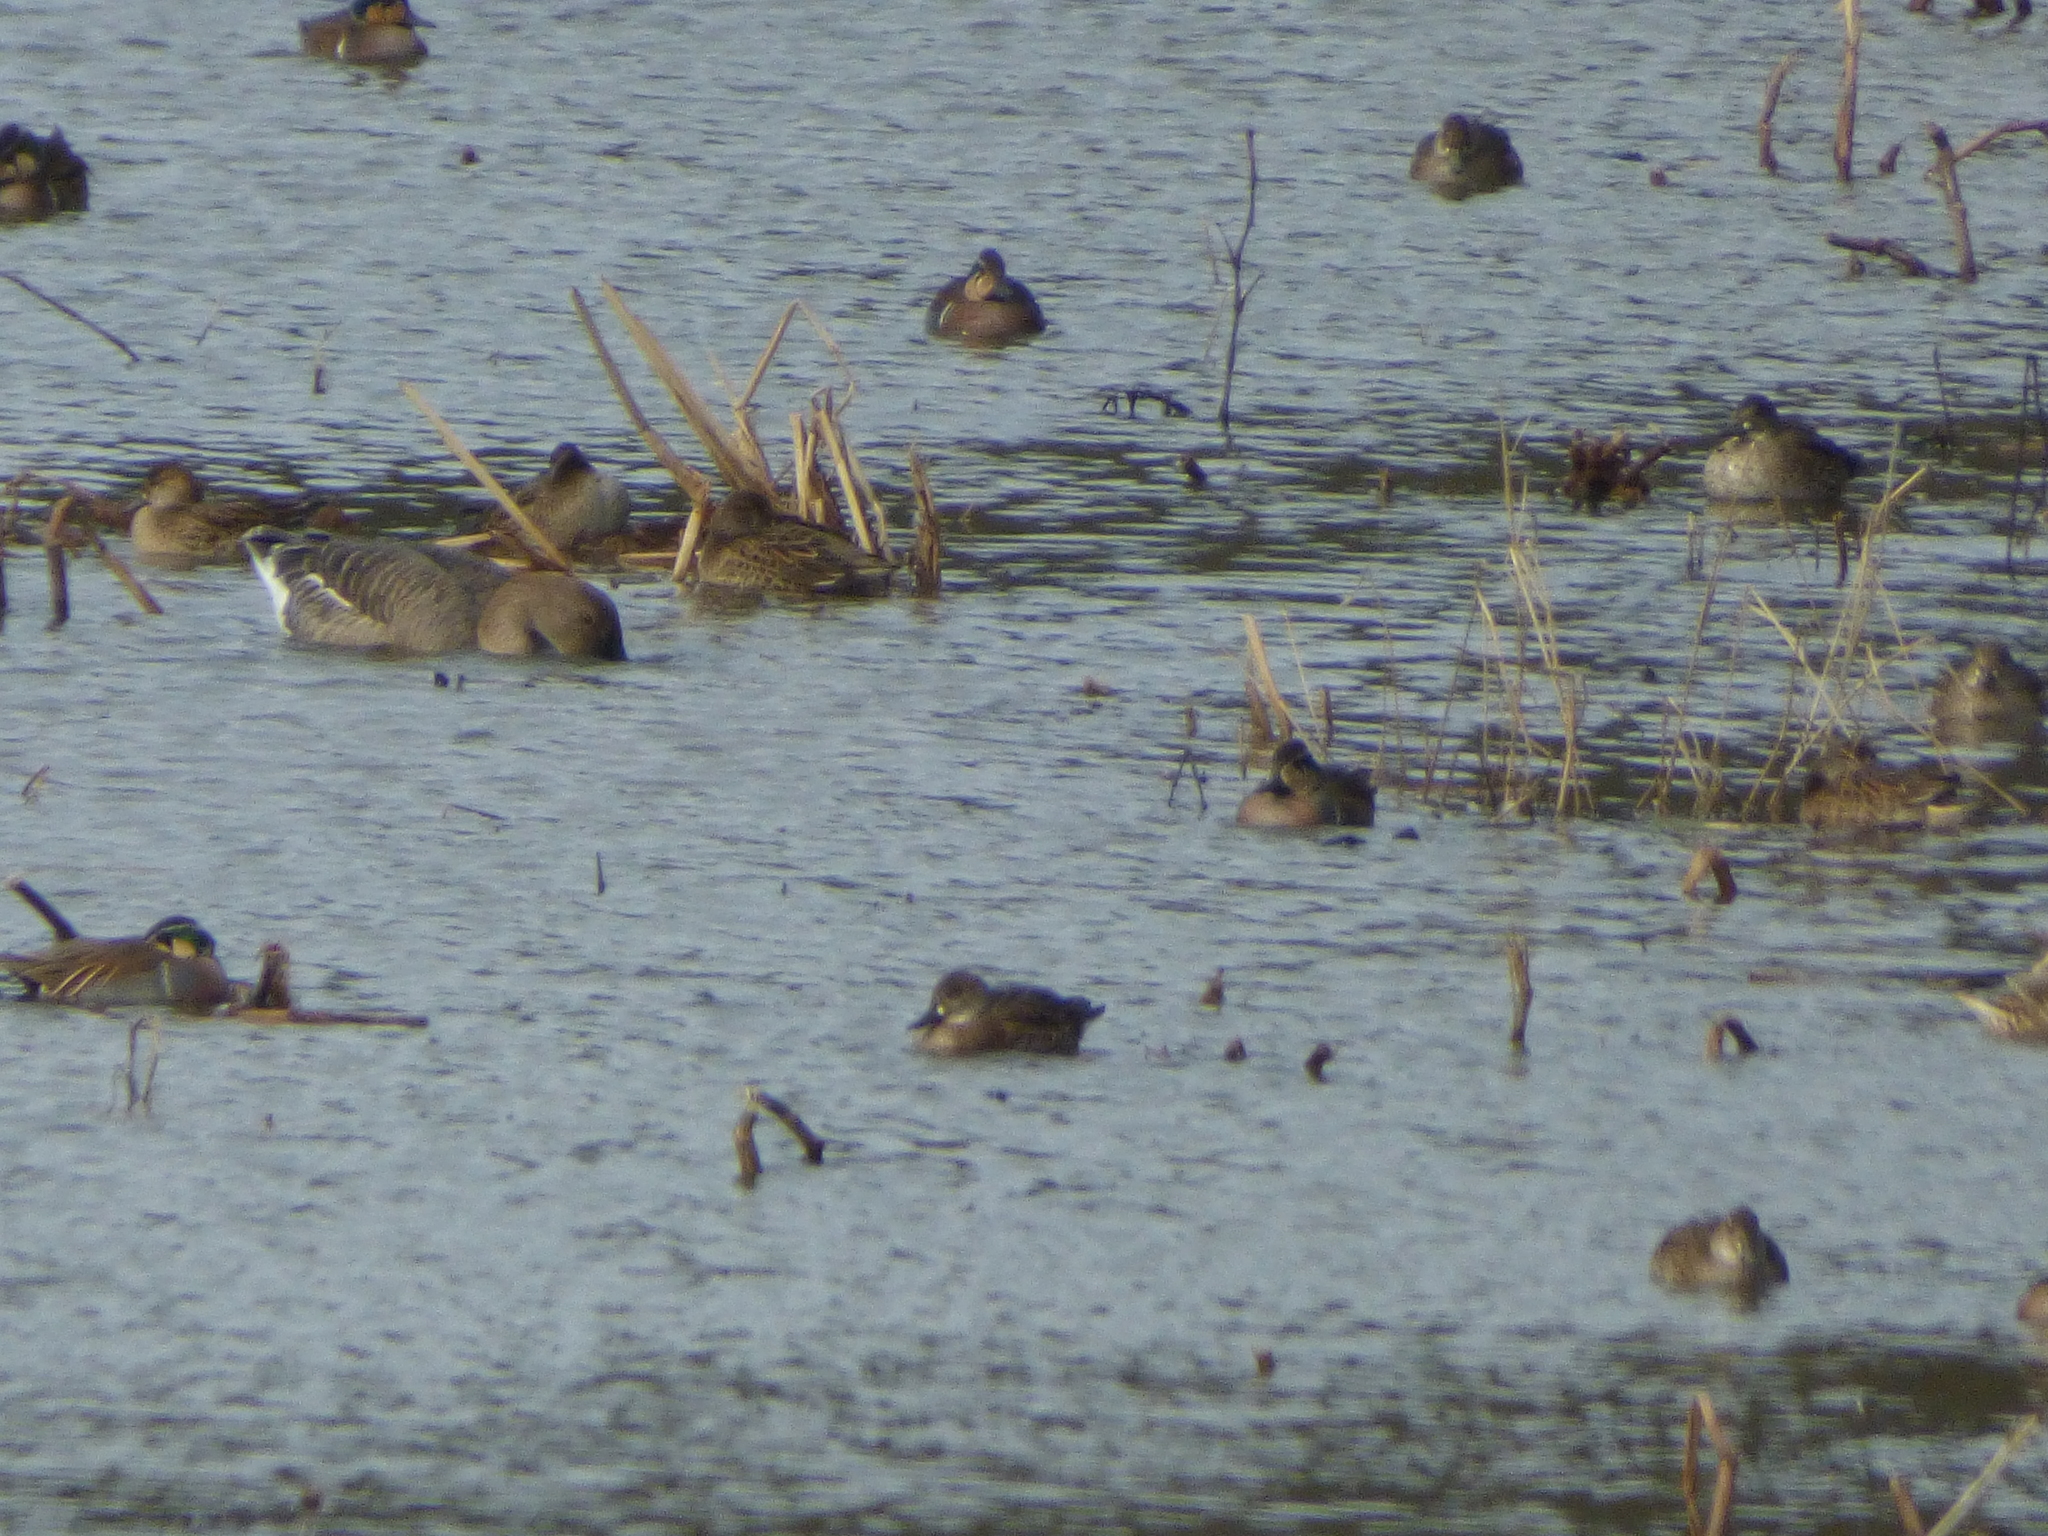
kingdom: Animalia
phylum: Chordata
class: Aves
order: Anseriformes
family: Anatidae
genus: Sibirionetta
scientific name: Sibirionetta formosa
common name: Baikal teal
